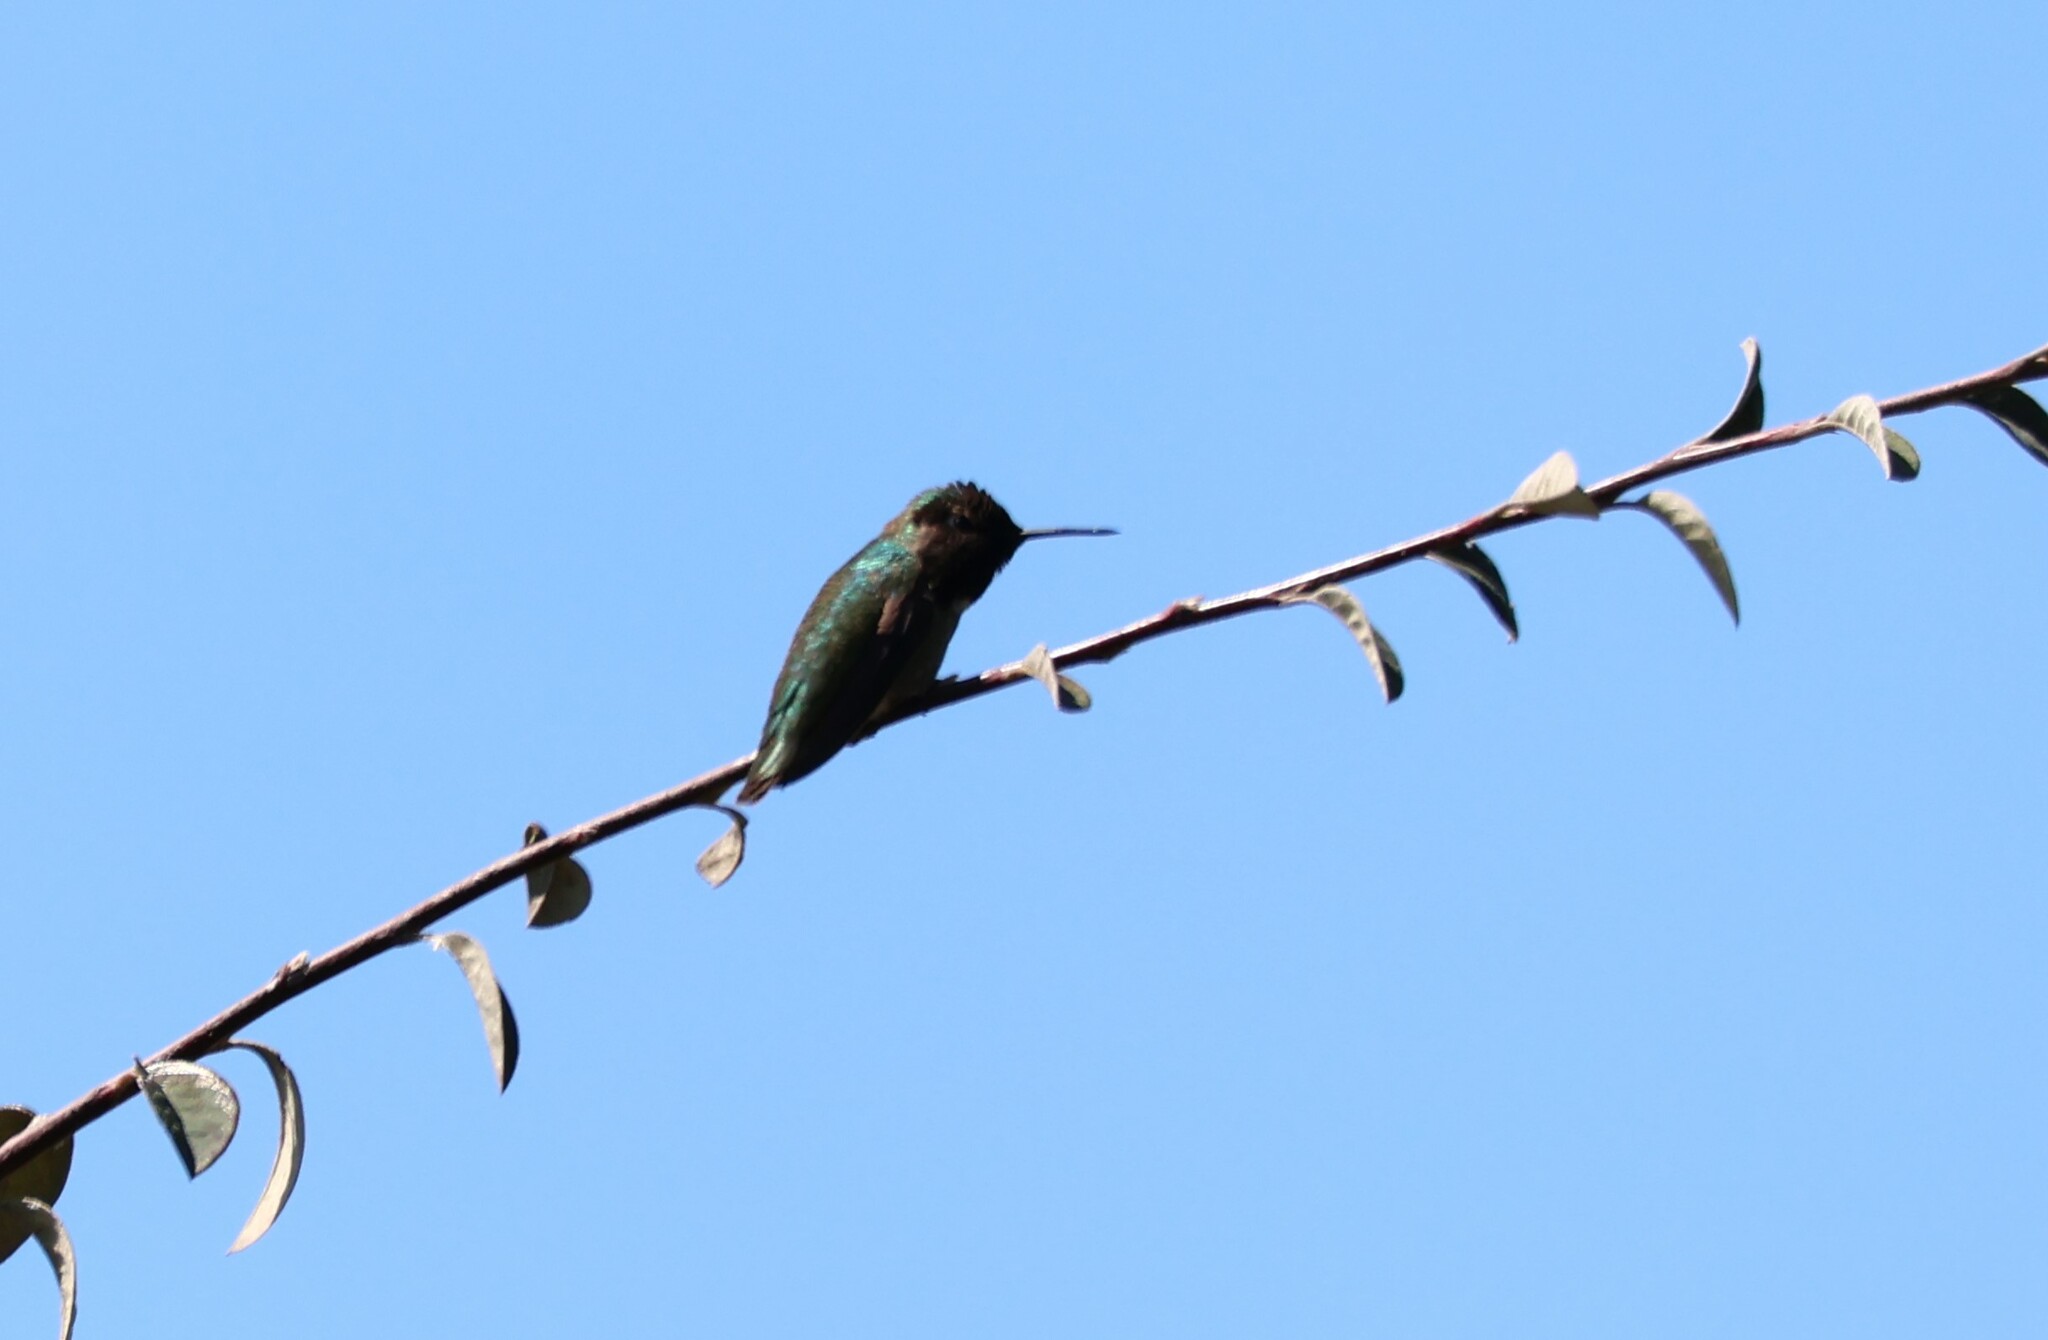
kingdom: Animalia
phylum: Chordata
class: Aves
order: Apodiformes
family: Trochilidae
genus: Calypte
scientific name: Calypte anna
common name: Anna's hummingbird
